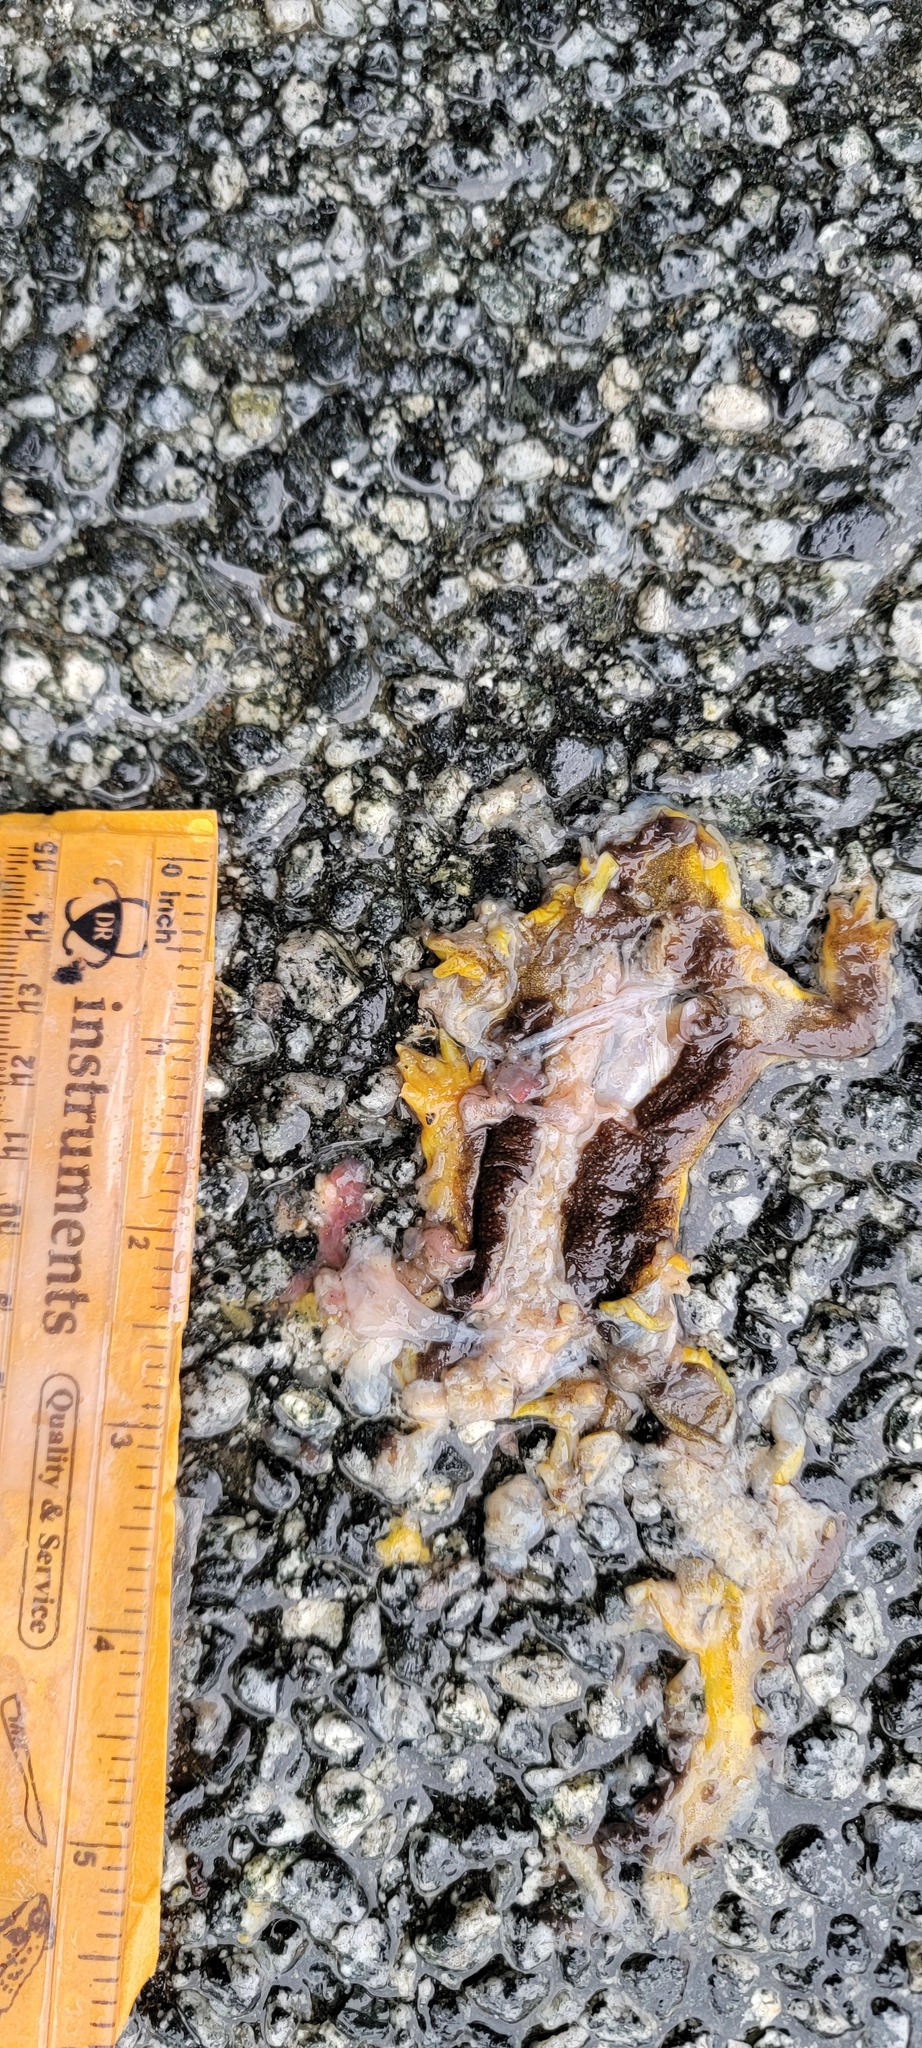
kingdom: Animalia
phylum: Chordata
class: Amphibia
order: Caudata
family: Salamandridae
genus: Taricha
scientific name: Taricha
